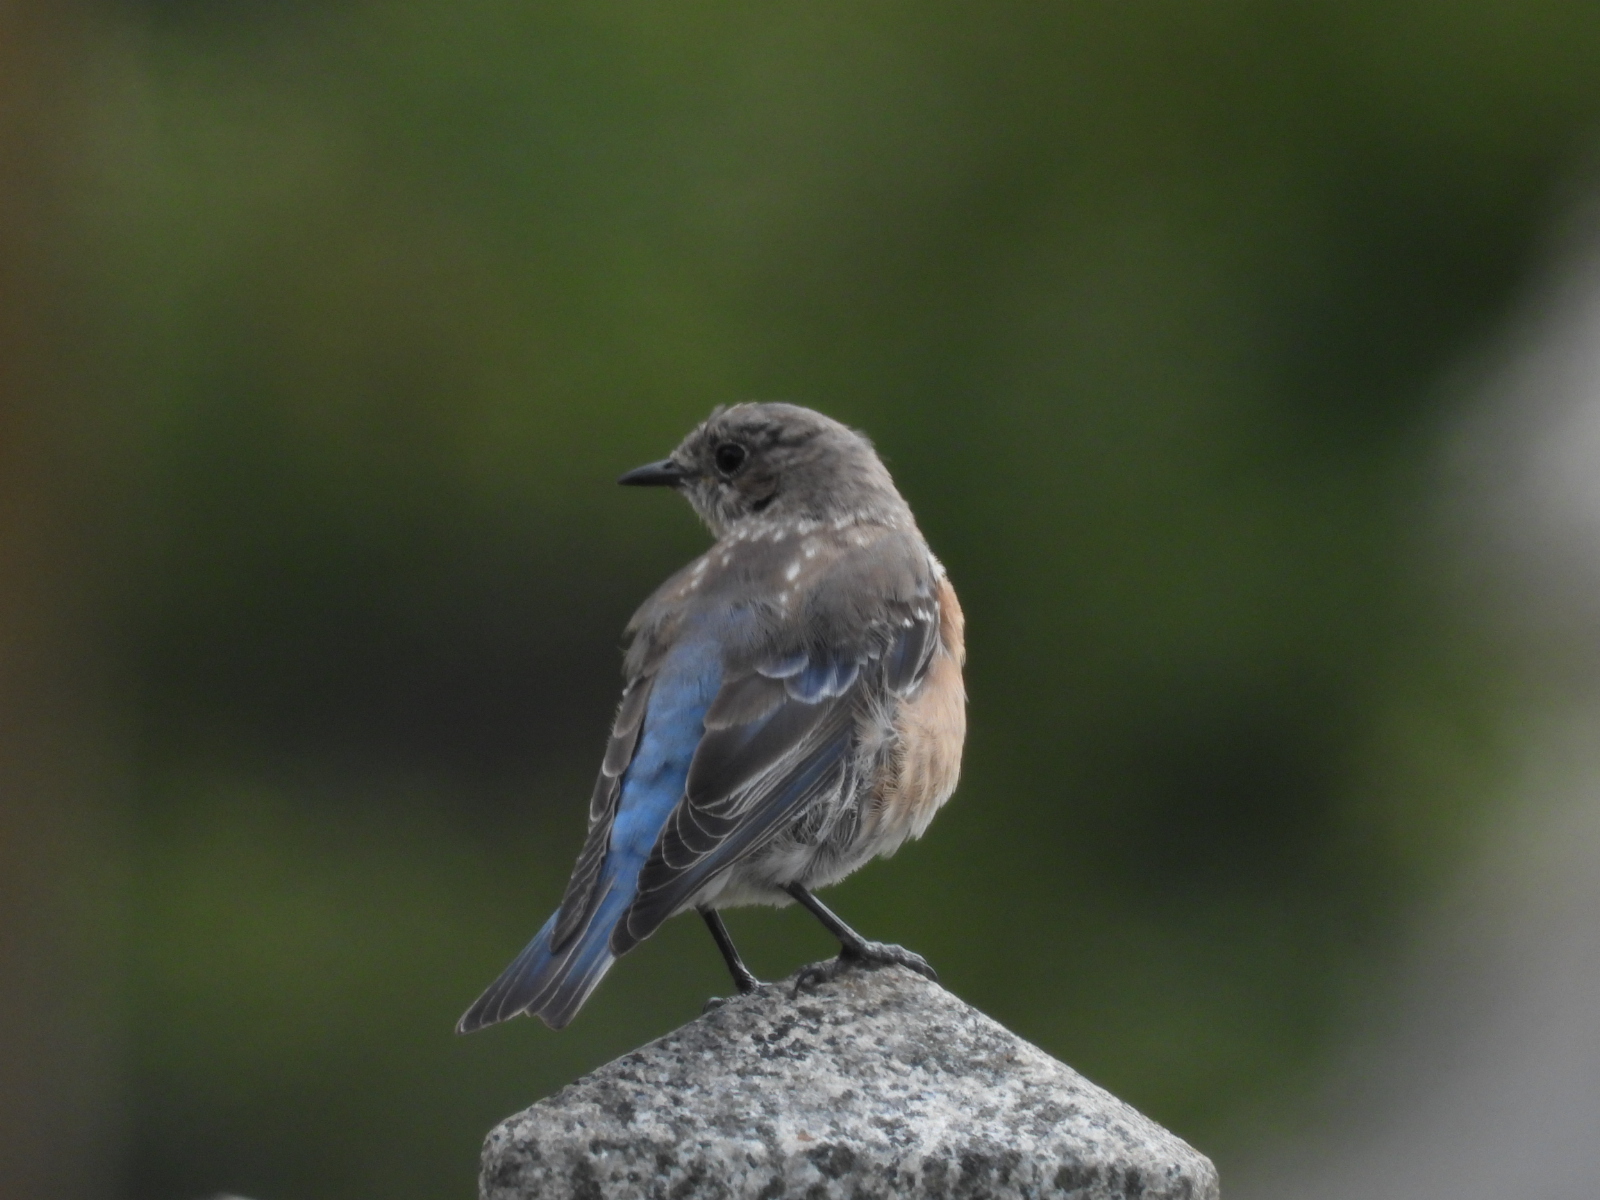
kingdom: Animalia
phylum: Chordata
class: Aves
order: Passeriformes
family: Turdidae
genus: Sialia
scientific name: Sialia mexicana
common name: Western bluebird
